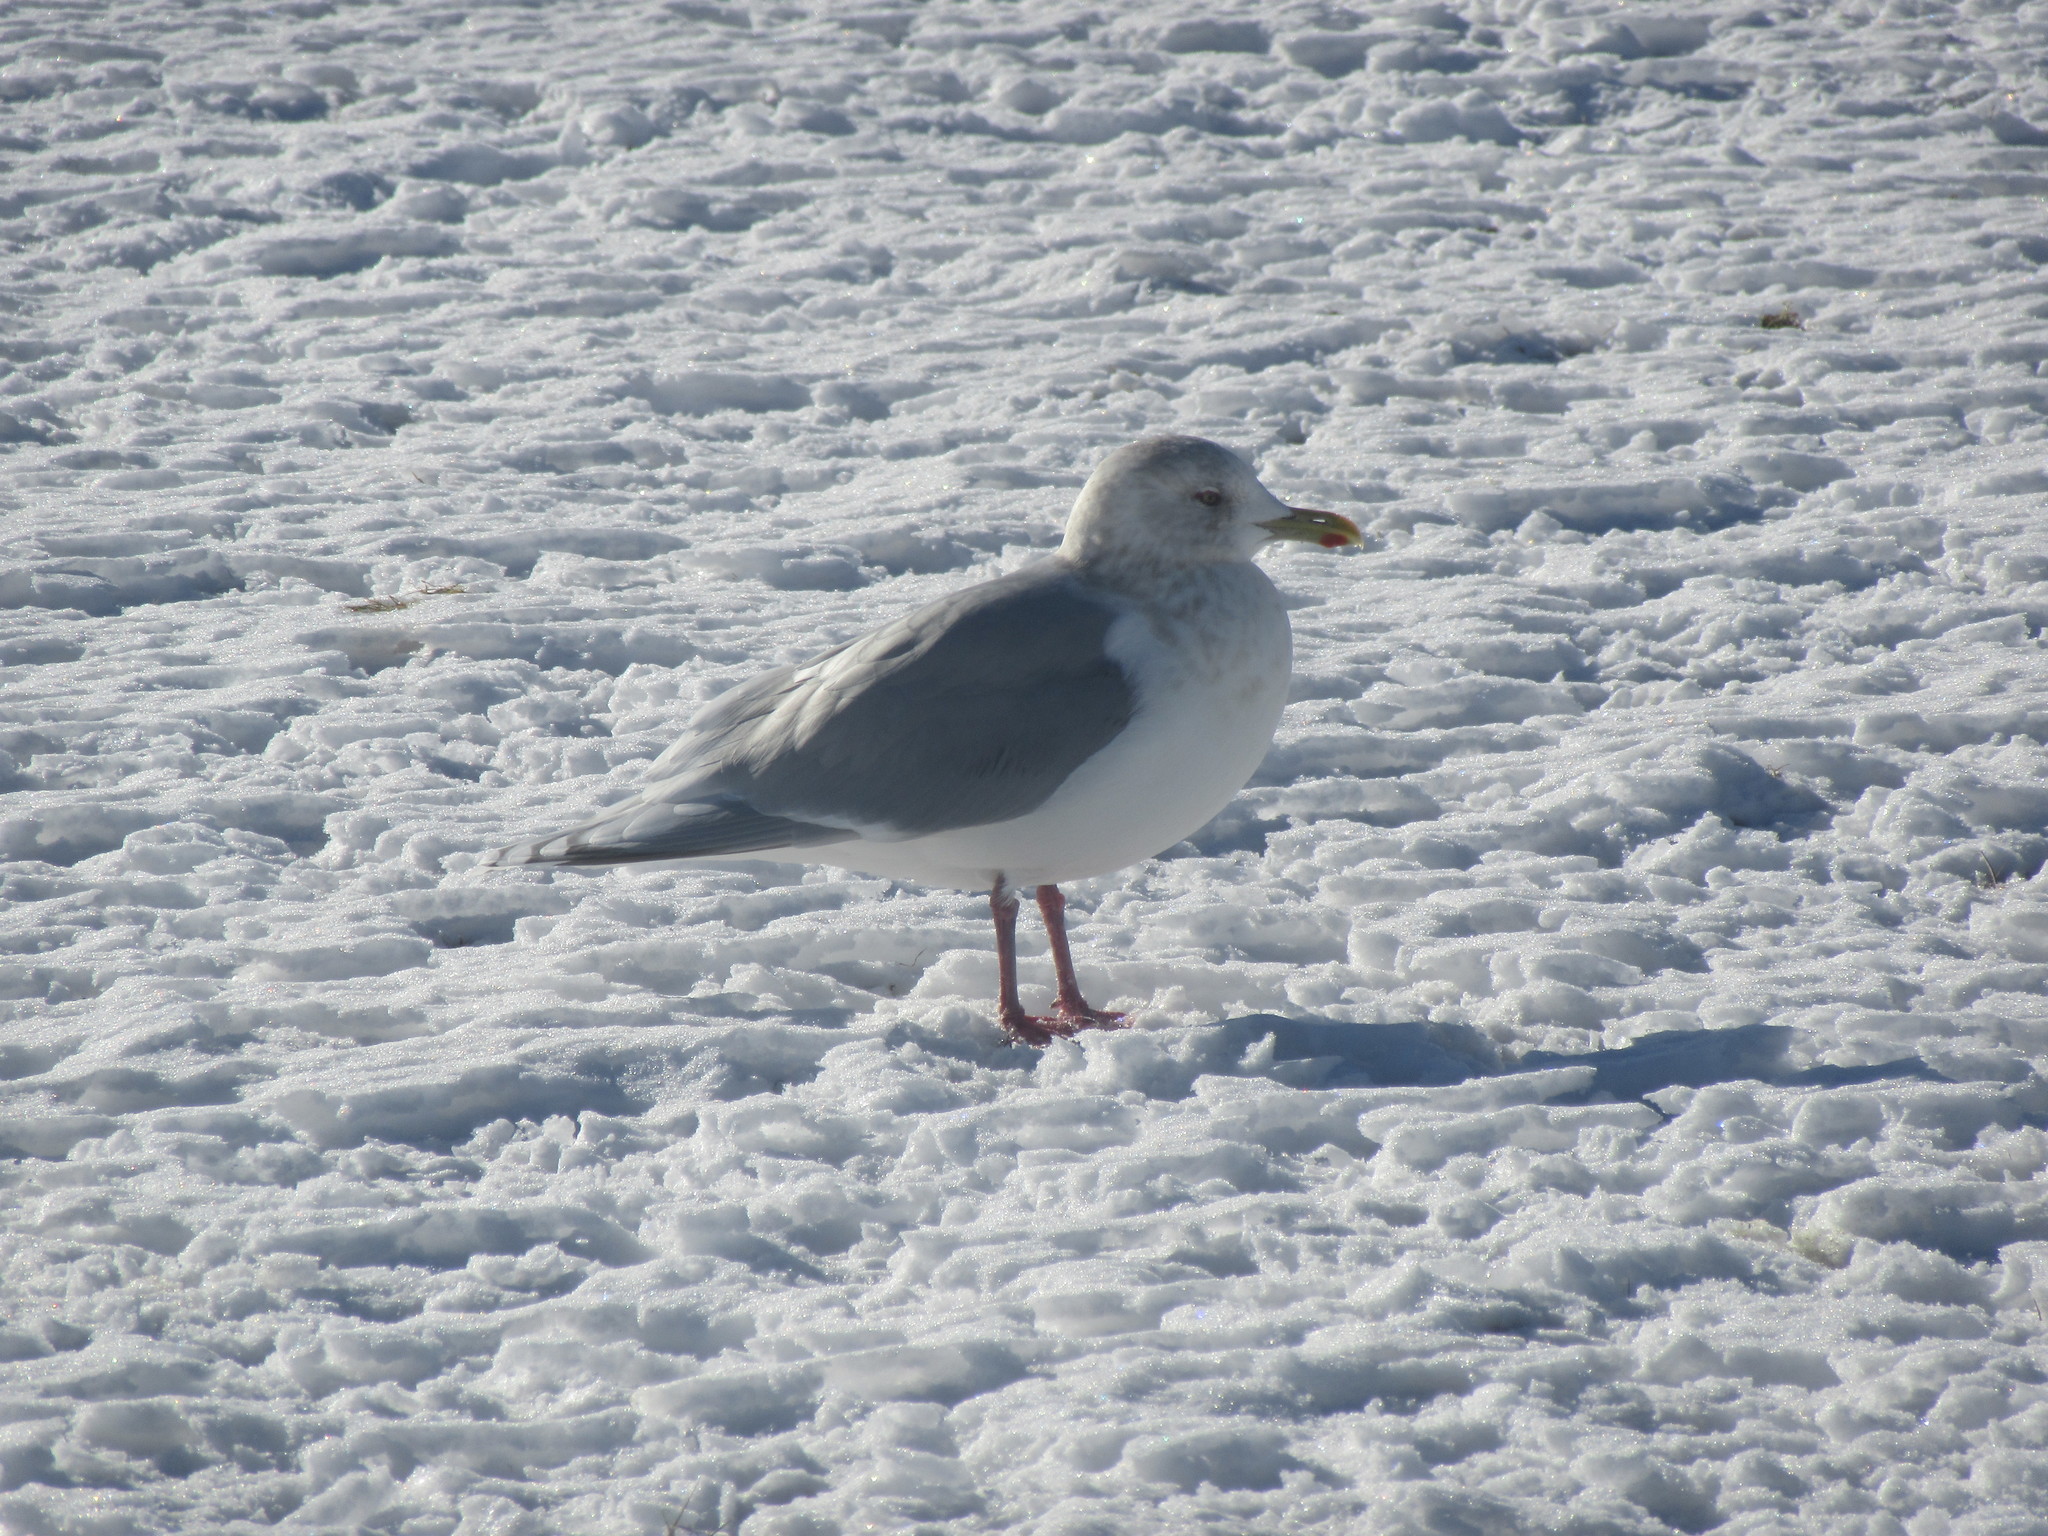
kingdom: Animalia
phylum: Chordata
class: Aves
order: Charadriiformes
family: Laridae
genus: Larus
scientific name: Larus glaucoides
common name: Iceland gull
